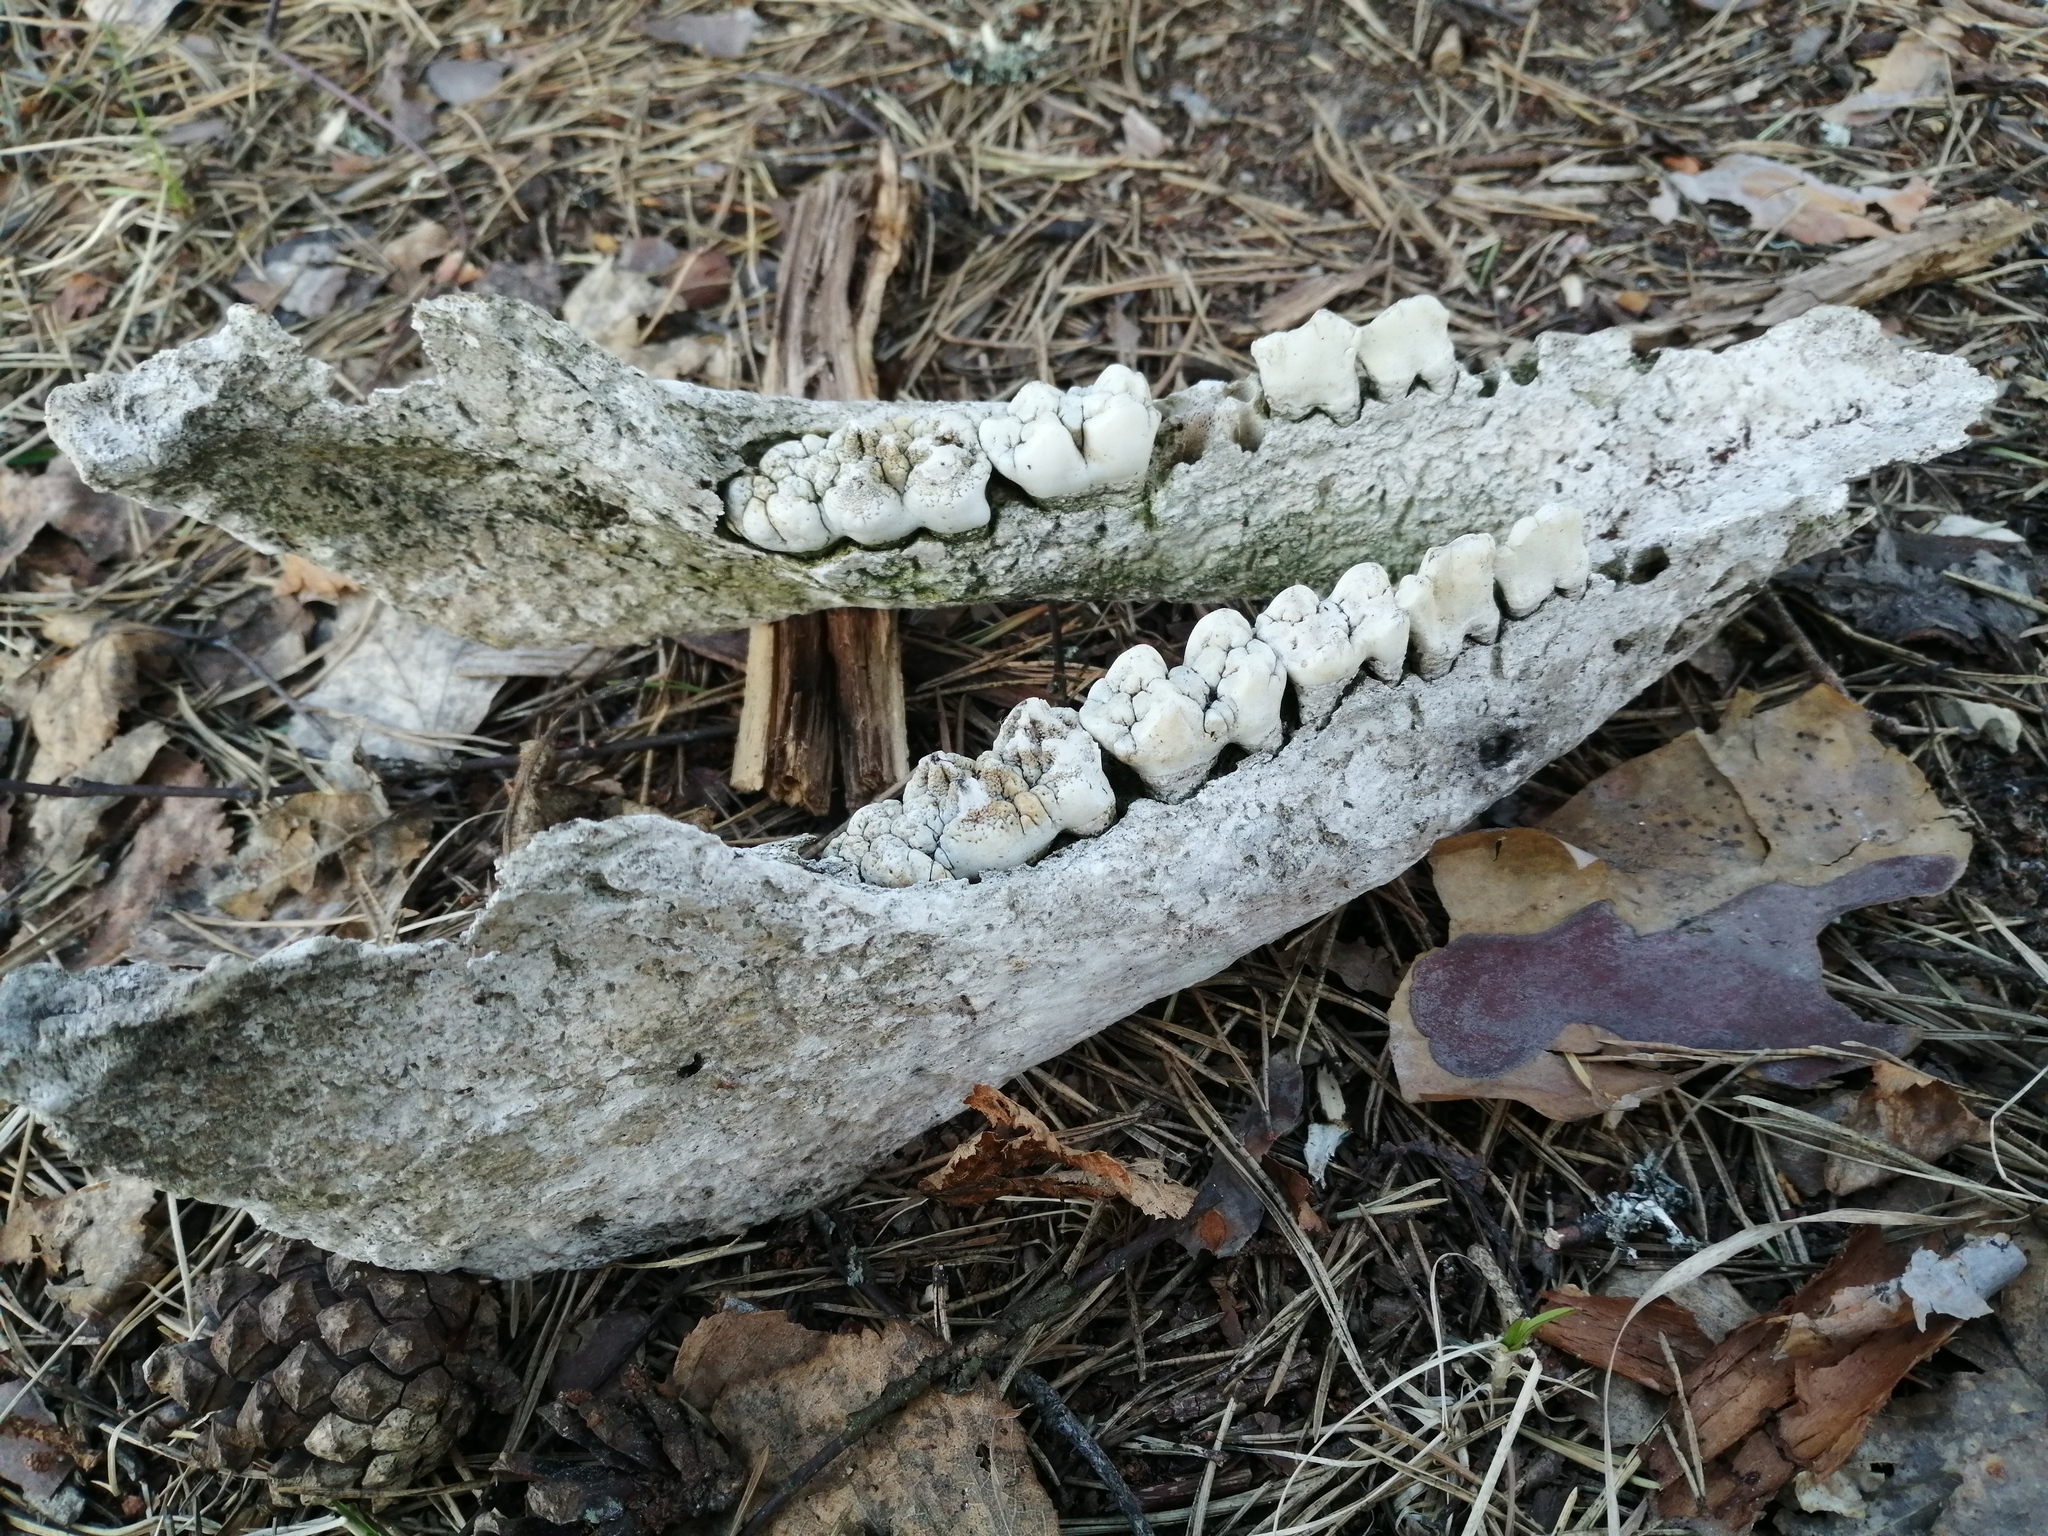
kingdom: Animalia
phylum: Chordata
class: Mammalia
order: Artiodactyla
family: Suidae
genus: Sus
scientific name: Sus scrofa
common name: Wild boar
